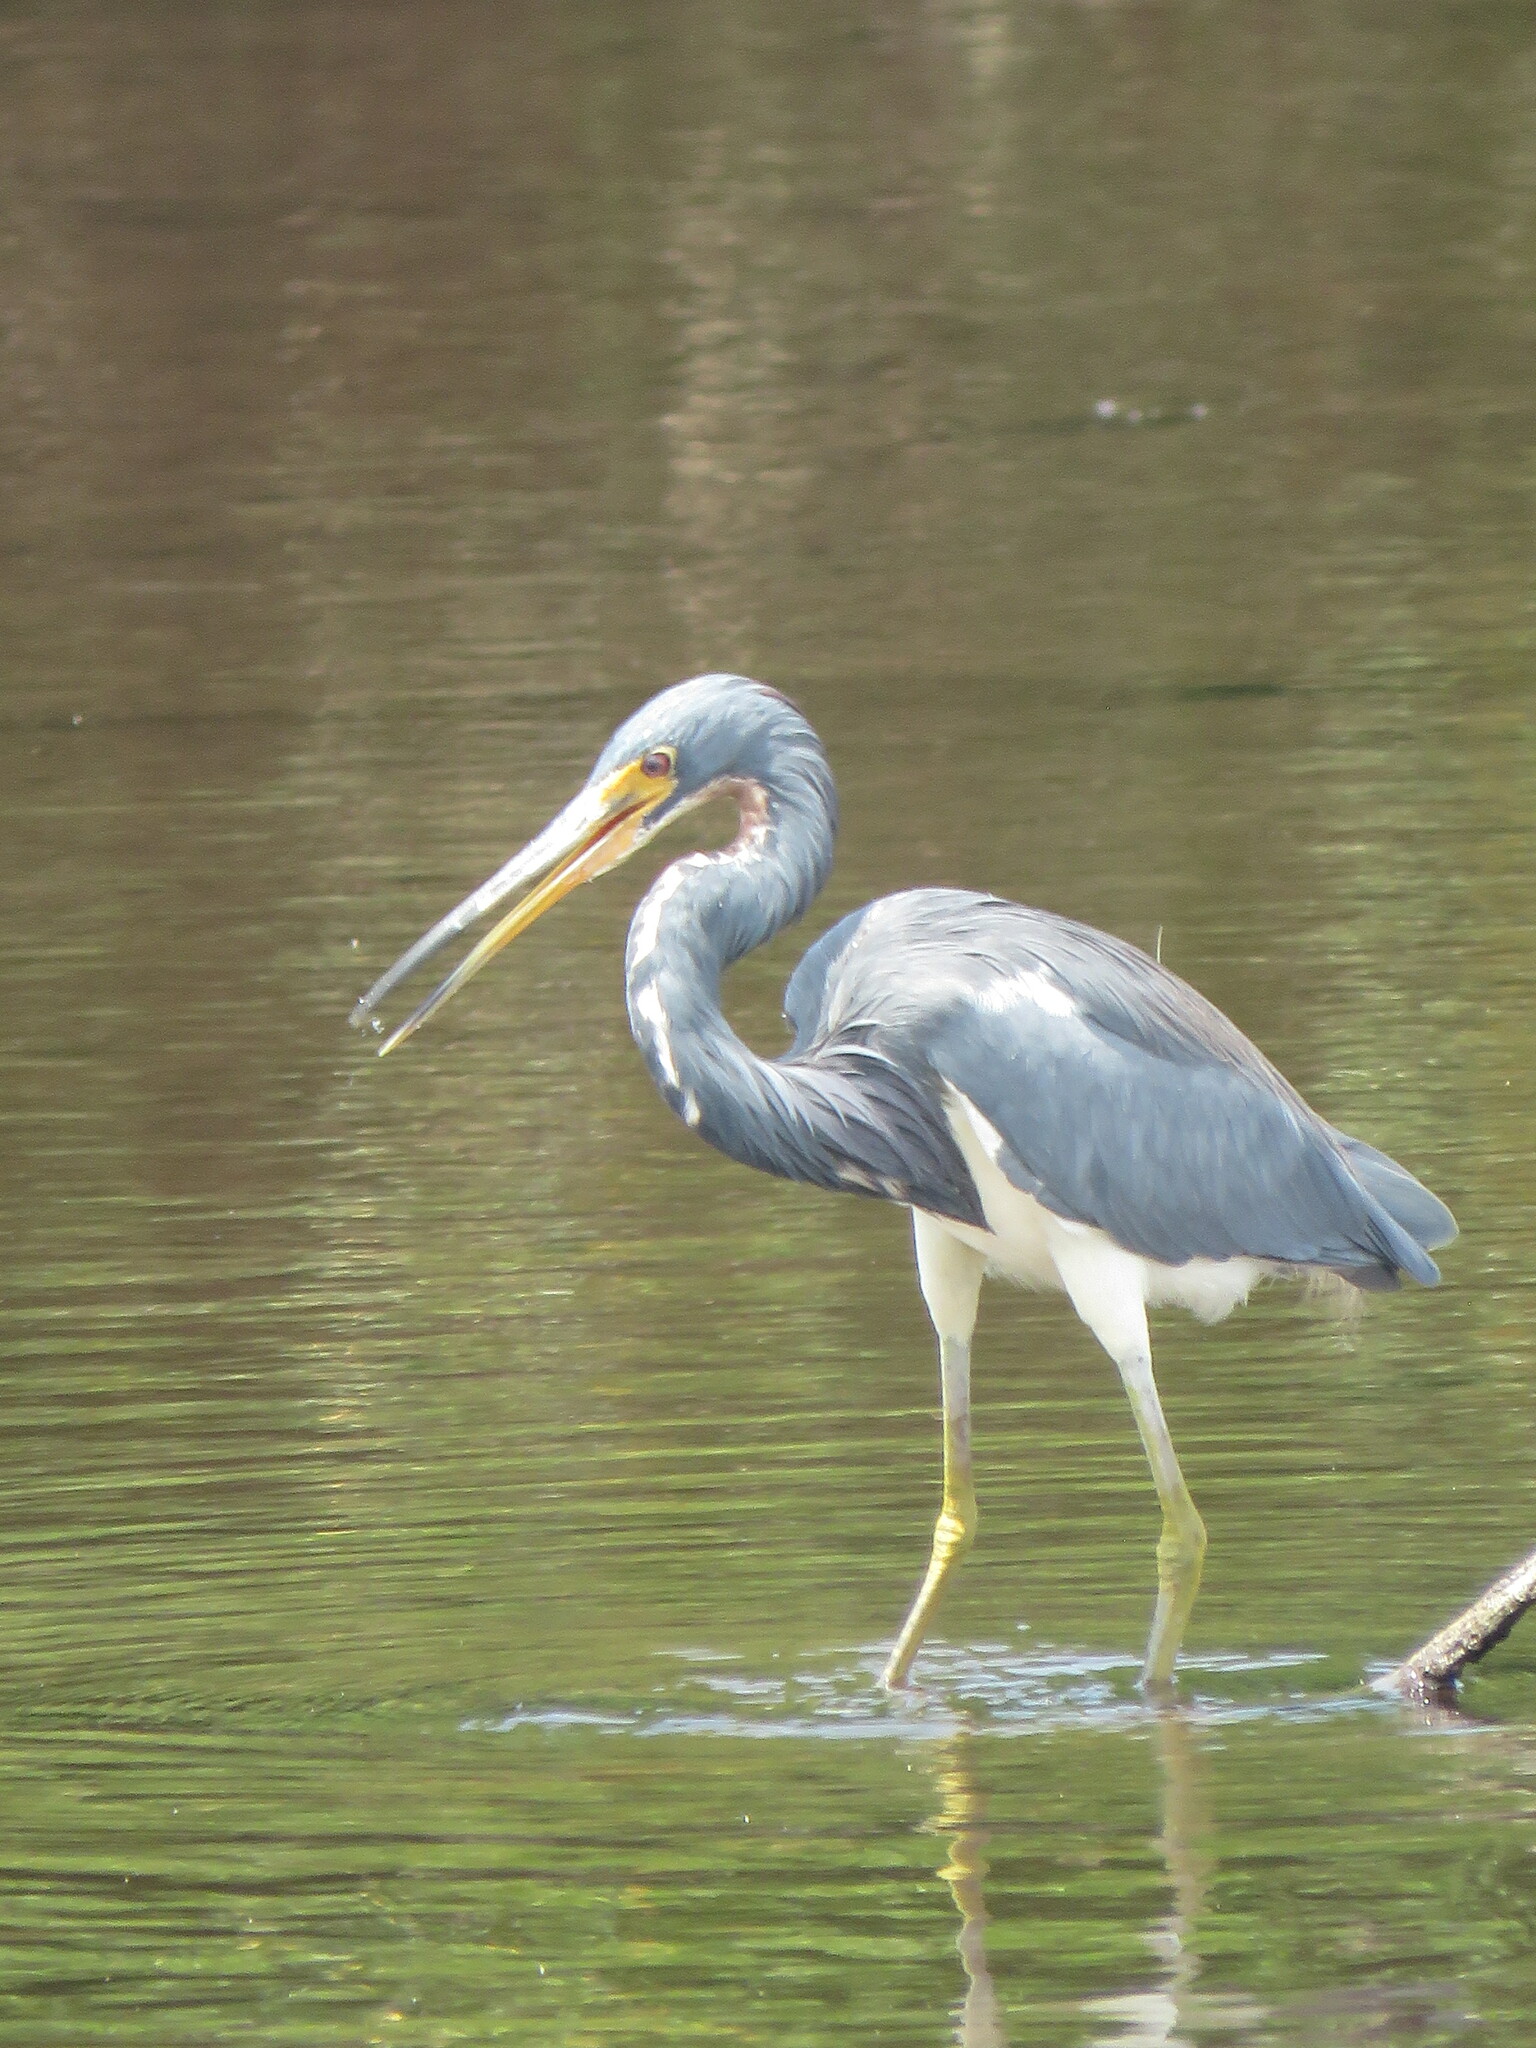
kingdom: Animalia
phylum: Chordata
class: Aves
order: Pelecaniformes
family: Ardeidae
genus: Egretta
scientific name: Egretta tricolor
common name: Tricolored heron
